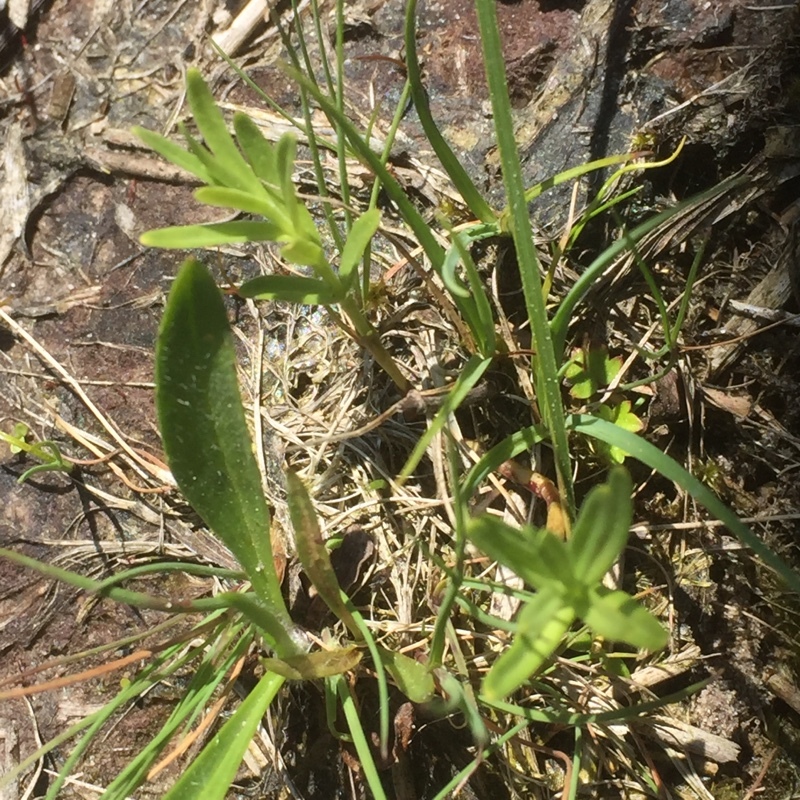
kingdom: Plantae
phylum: Tracheophyta
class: Magnoliopsida
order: Gentianales
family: Gentianaceae
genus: Gentiana
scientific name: Gentiana pneumonanthe
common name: Marsh gentian
